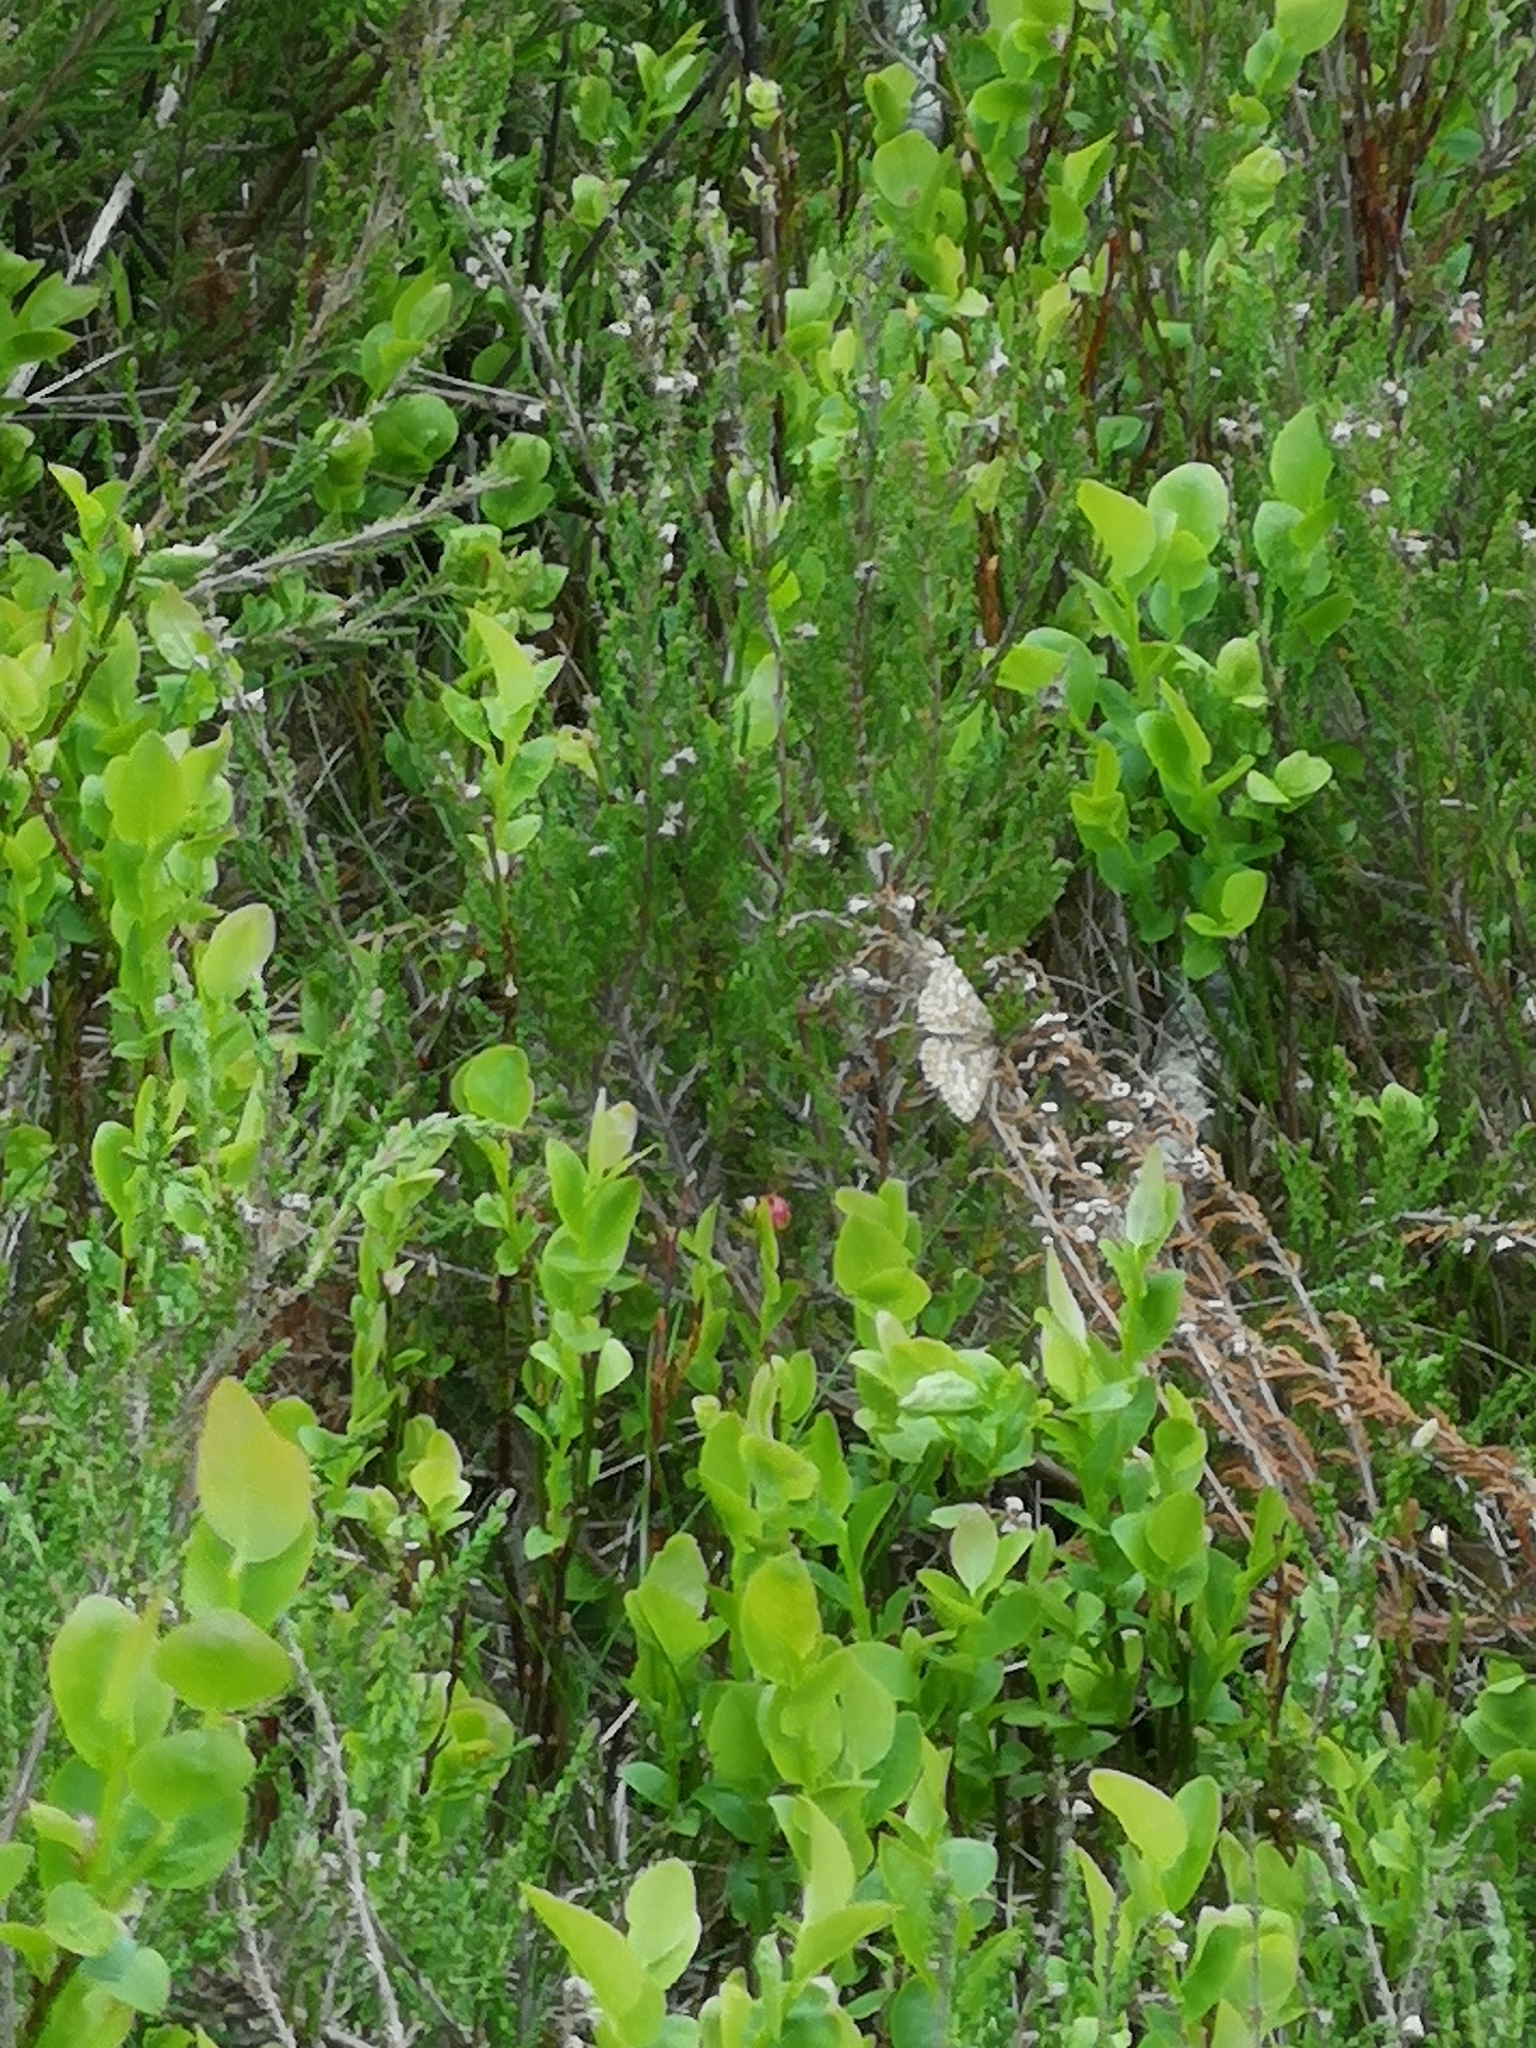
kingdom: Animalia
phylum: Arthropoda
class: Insecta
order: Lepidoptera
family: Geometridae
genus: Ematurga
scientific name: Ematurga atomaria
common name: Common heath
